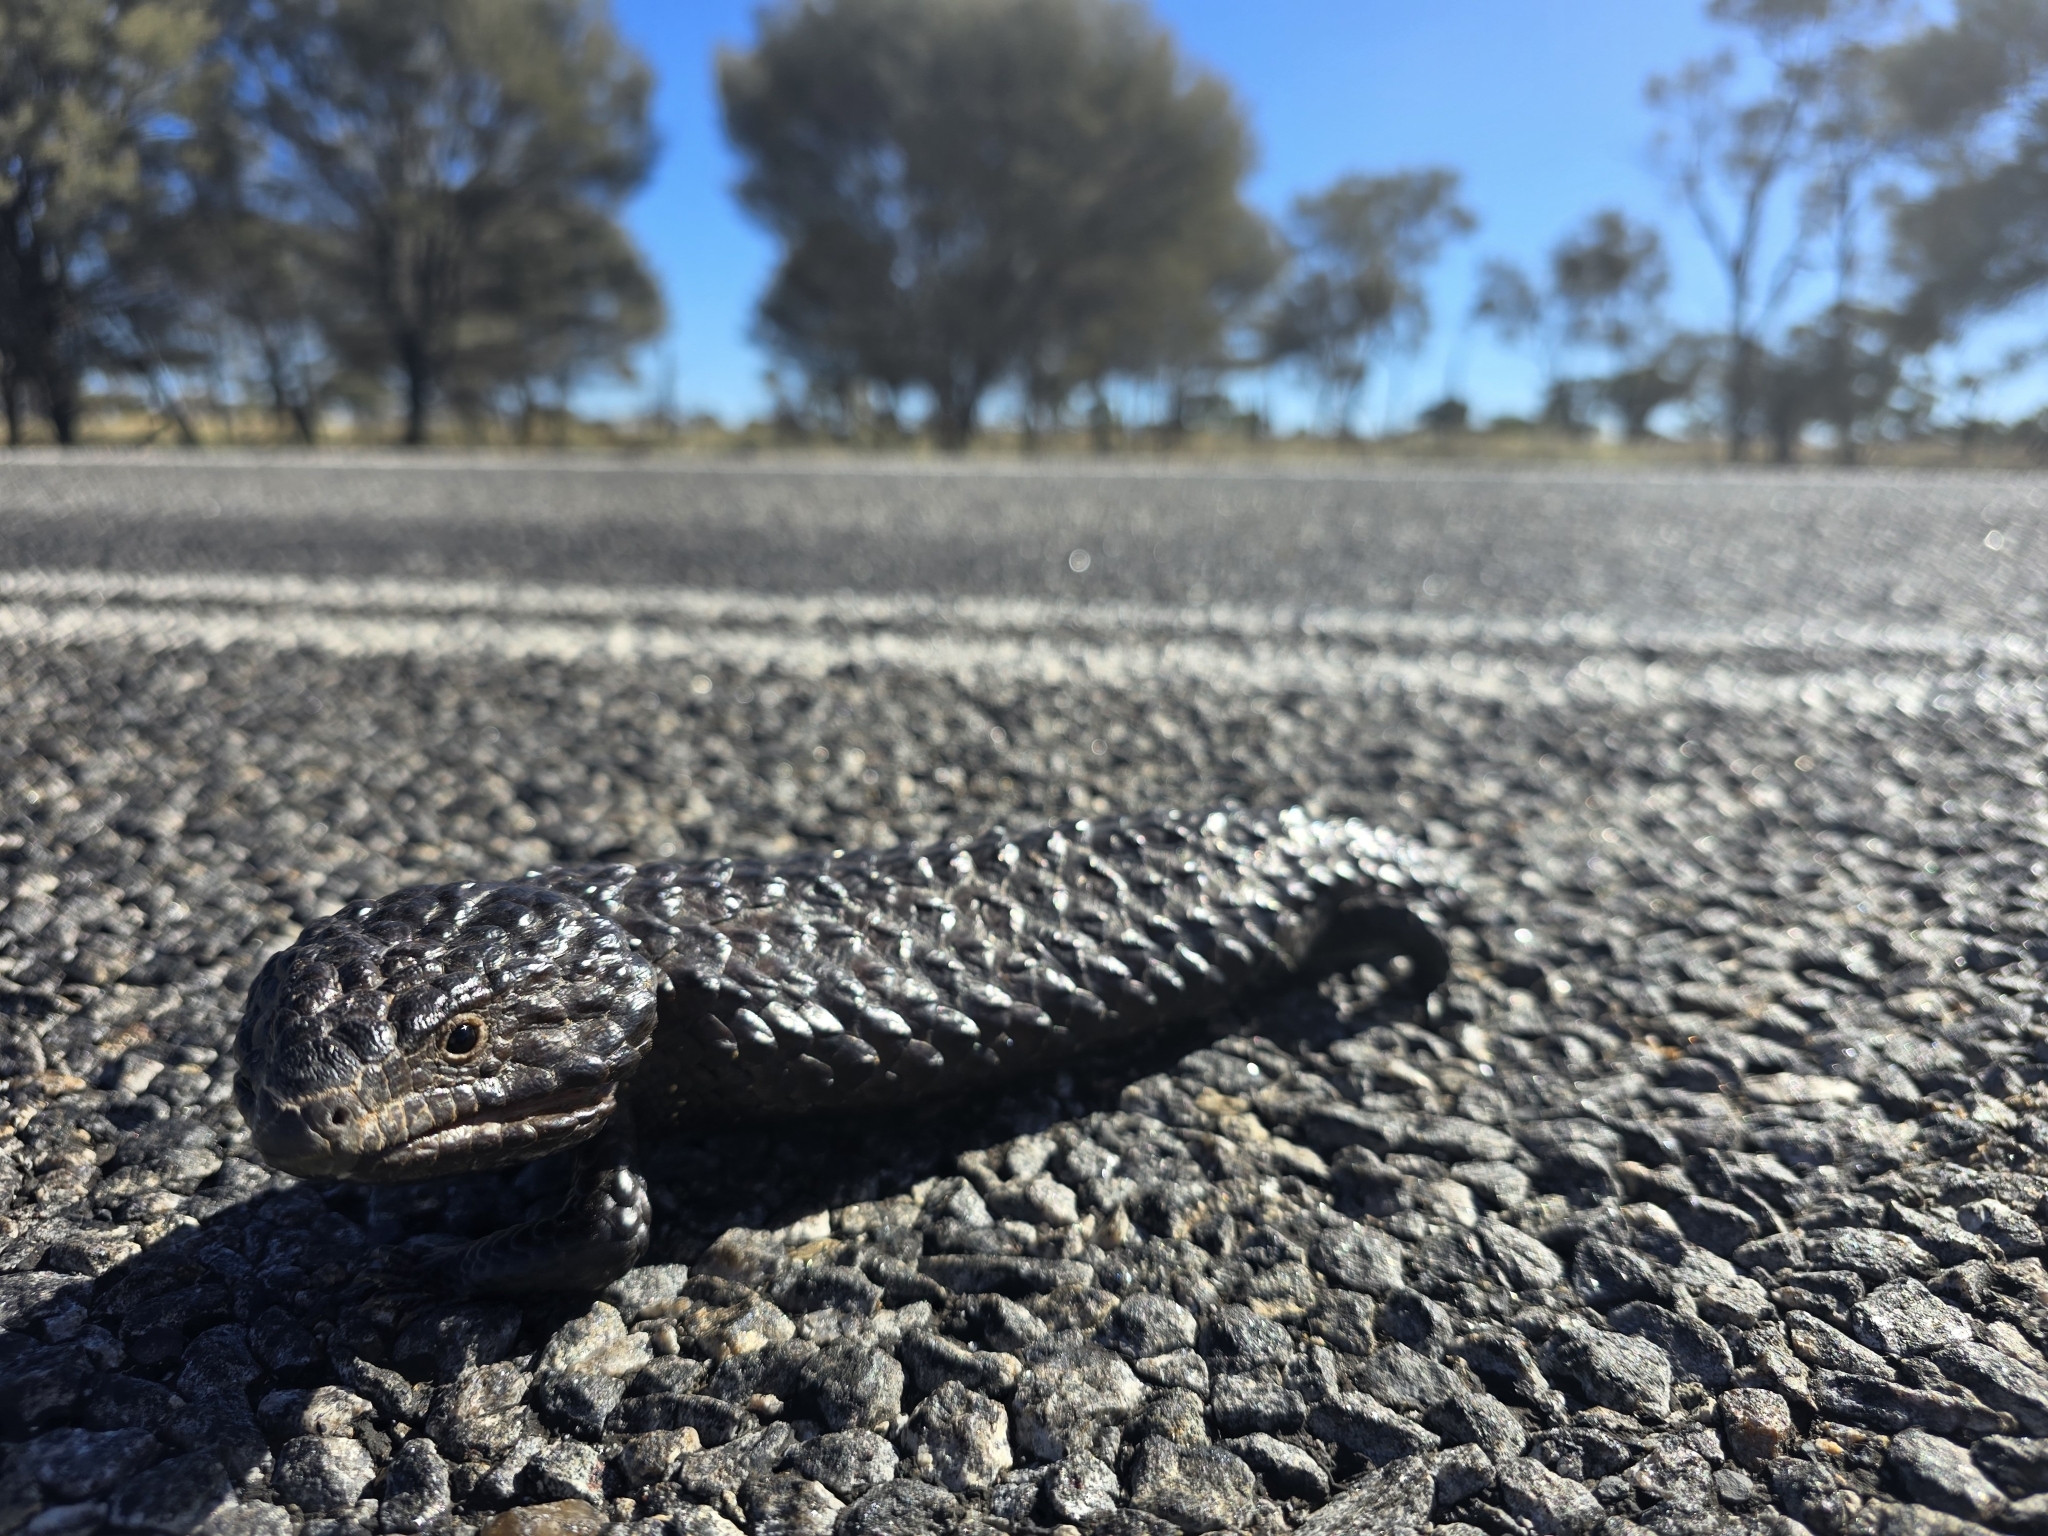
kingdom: Animalia
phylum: Chordata
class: Squamata
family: Scincidae
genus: Tiliqua
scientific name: Tiliqua rugosa
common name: Pinecone lizard
